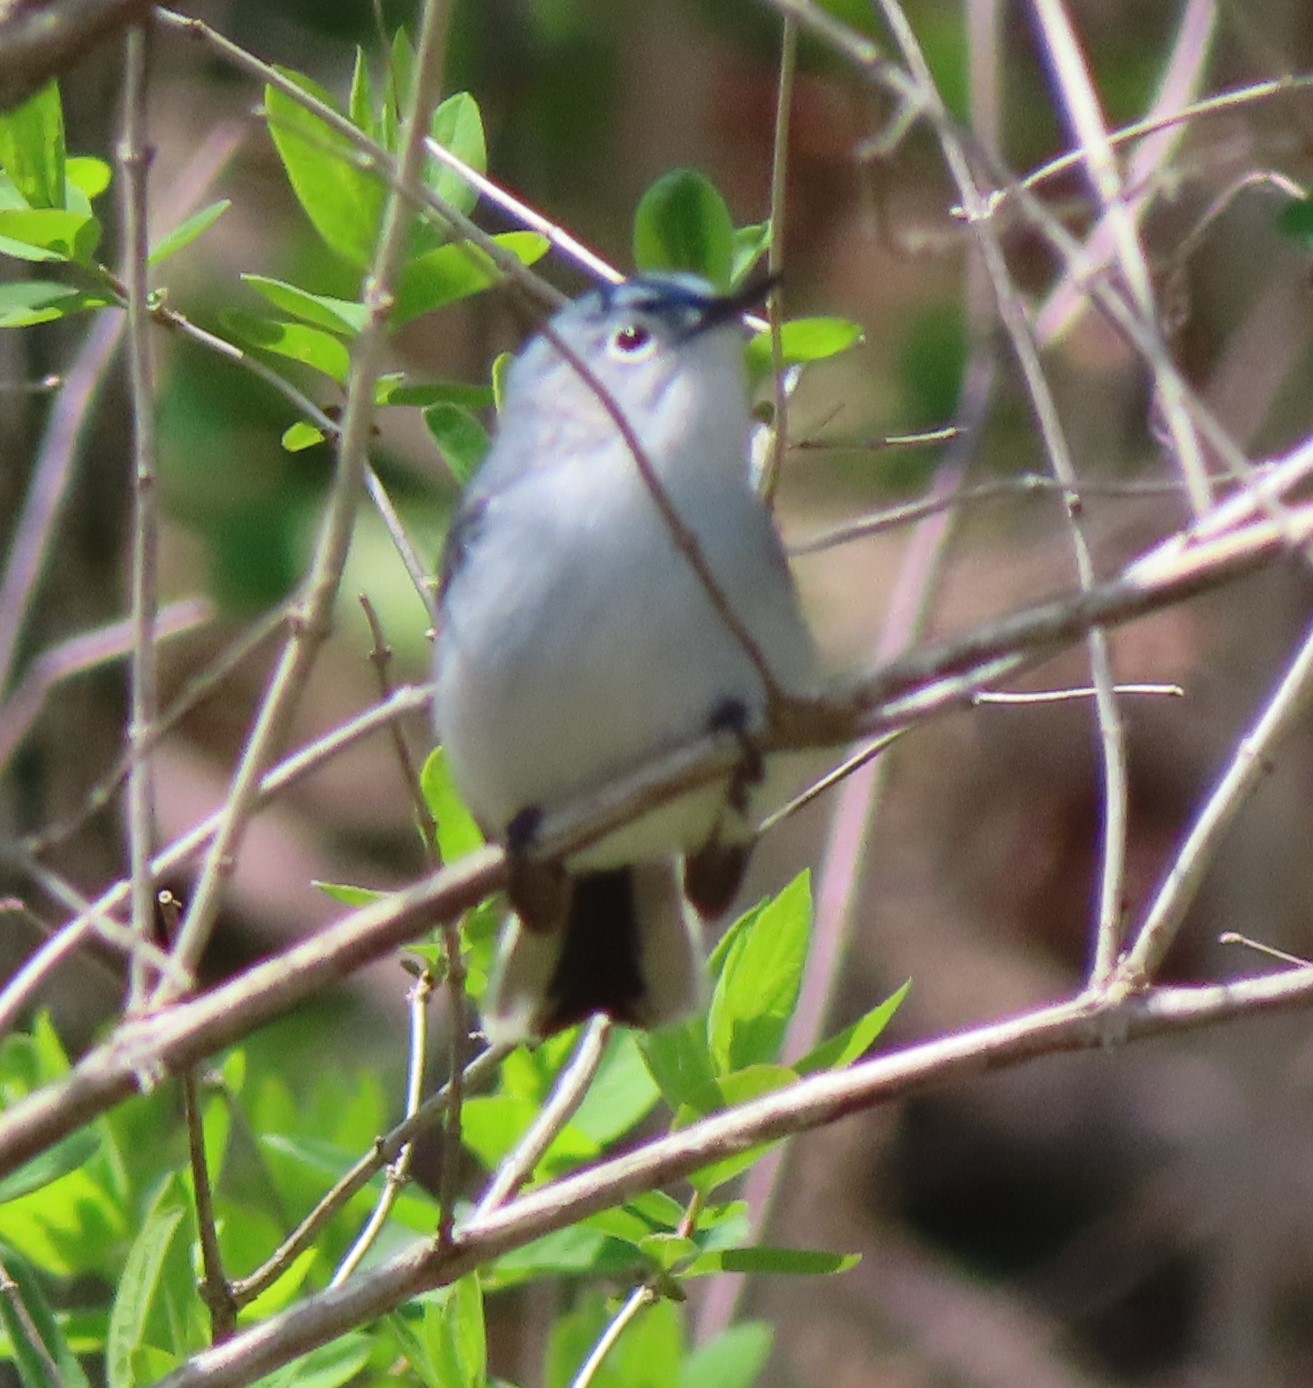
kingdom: Animalia
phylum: Chordata
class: Aves
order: Passeriformes
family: Polioptilidae
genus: Polioptila
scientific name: Polioptila caerulea
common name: Blue-gray gnatcatcher
